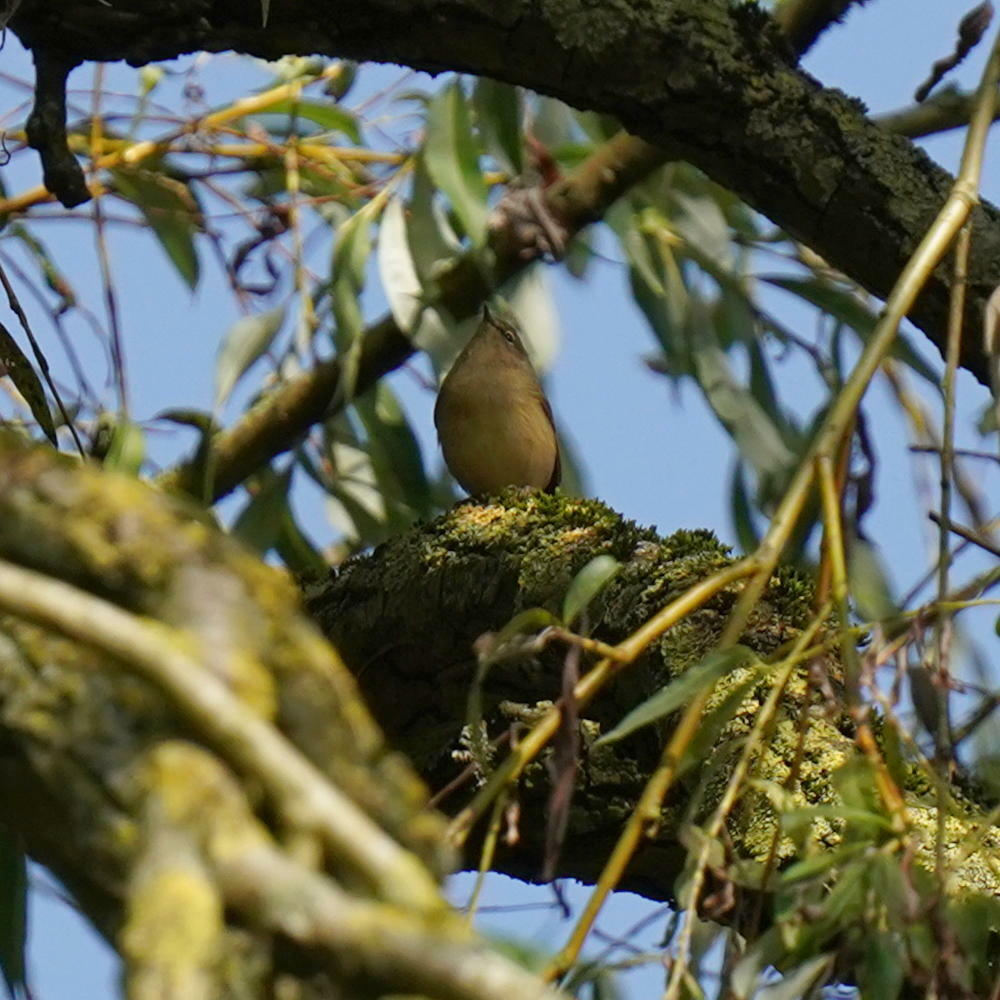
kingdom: Animalia
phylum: Chordata
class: Aves
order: Passeriformes
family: Phylloscopidae
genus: Phylloscopus
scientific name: Phylloscopus collybita
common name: Common chiffchaff
